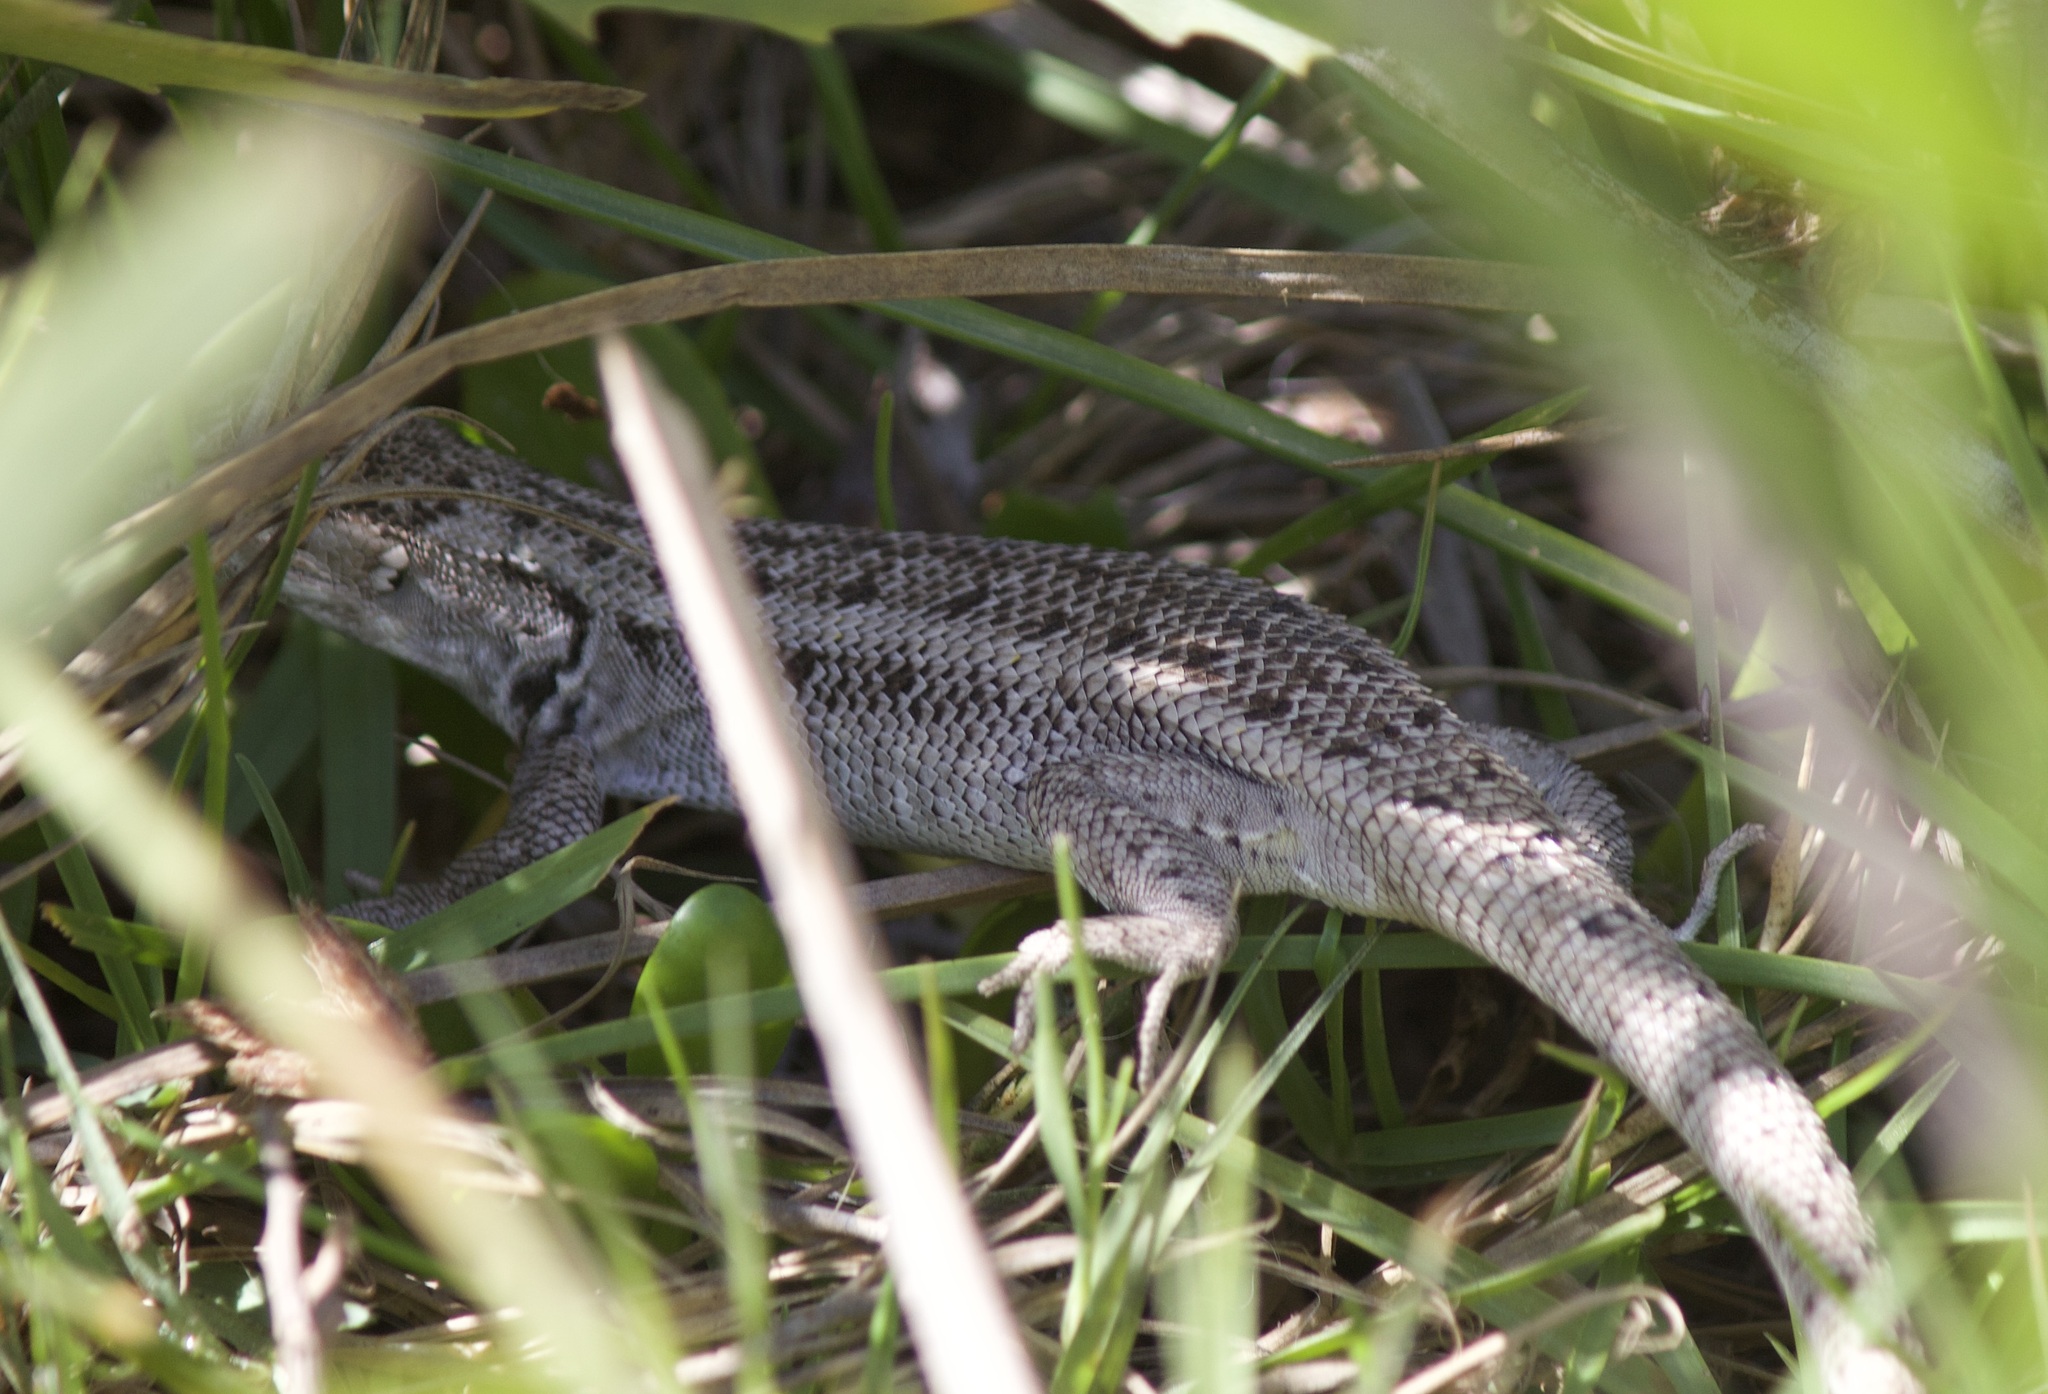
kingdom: Animalia
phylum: Chordata
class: Squamata
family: Liolaemidae
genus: Liolaemus
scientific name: Liolaemus zapallarensis
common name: Zapallaren tree iguana
